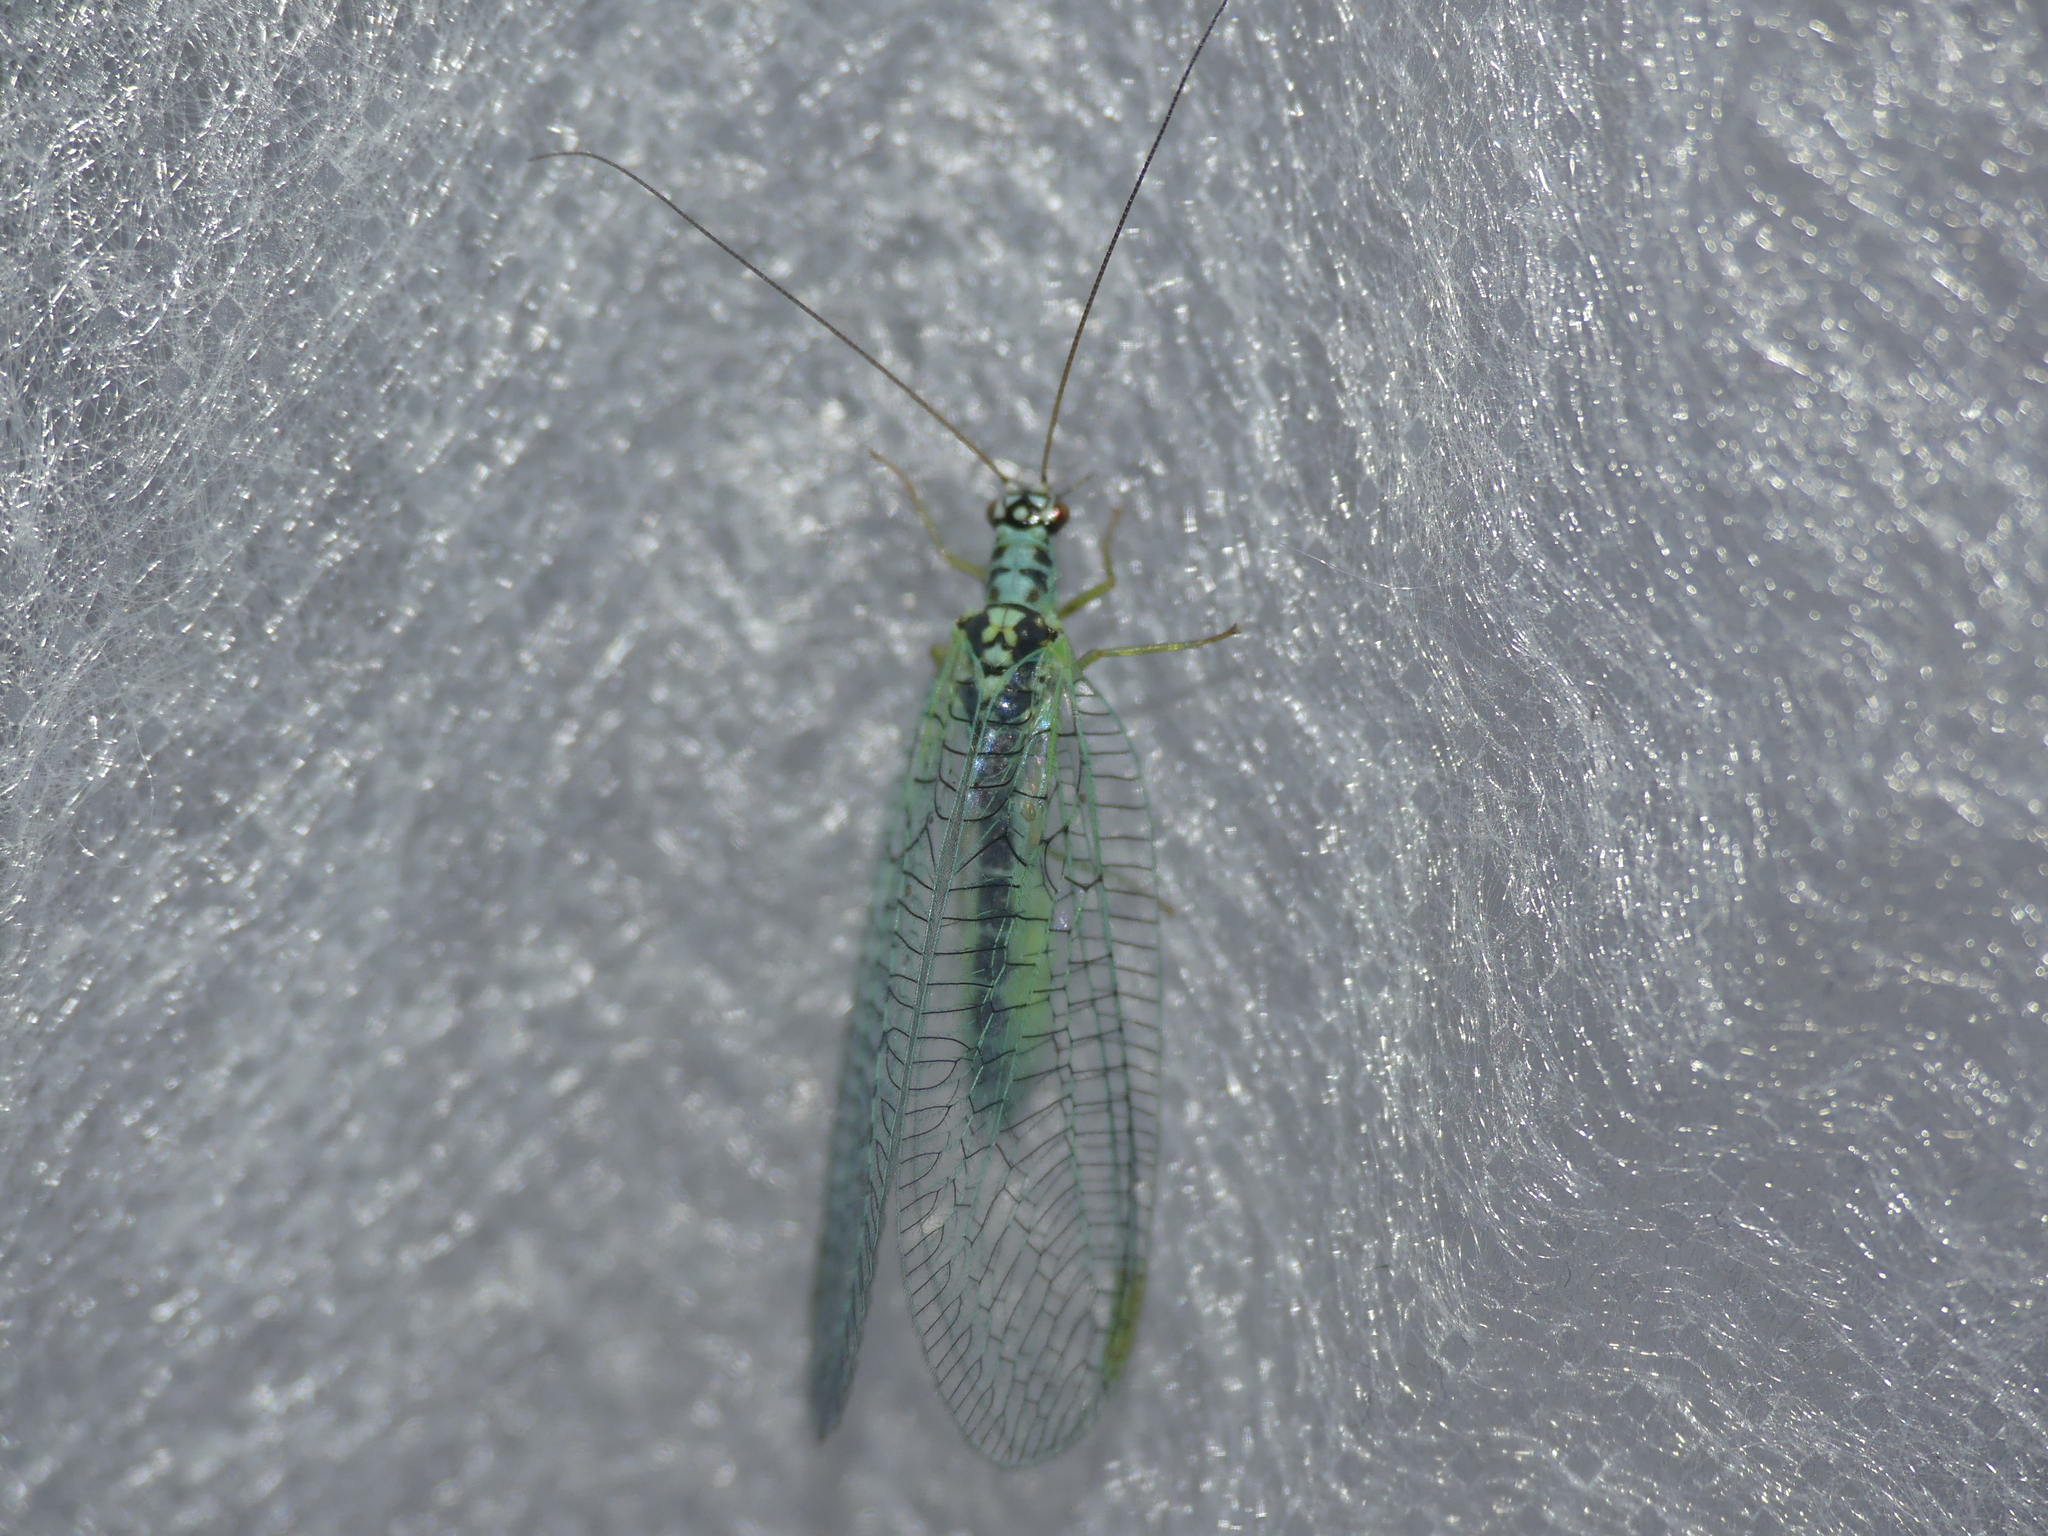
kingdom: Animalia
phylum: Arthropoda
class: Insecta
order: Neuroptera
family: Chrysopidae
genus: Chrysopa
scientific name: Chrysopa perla
